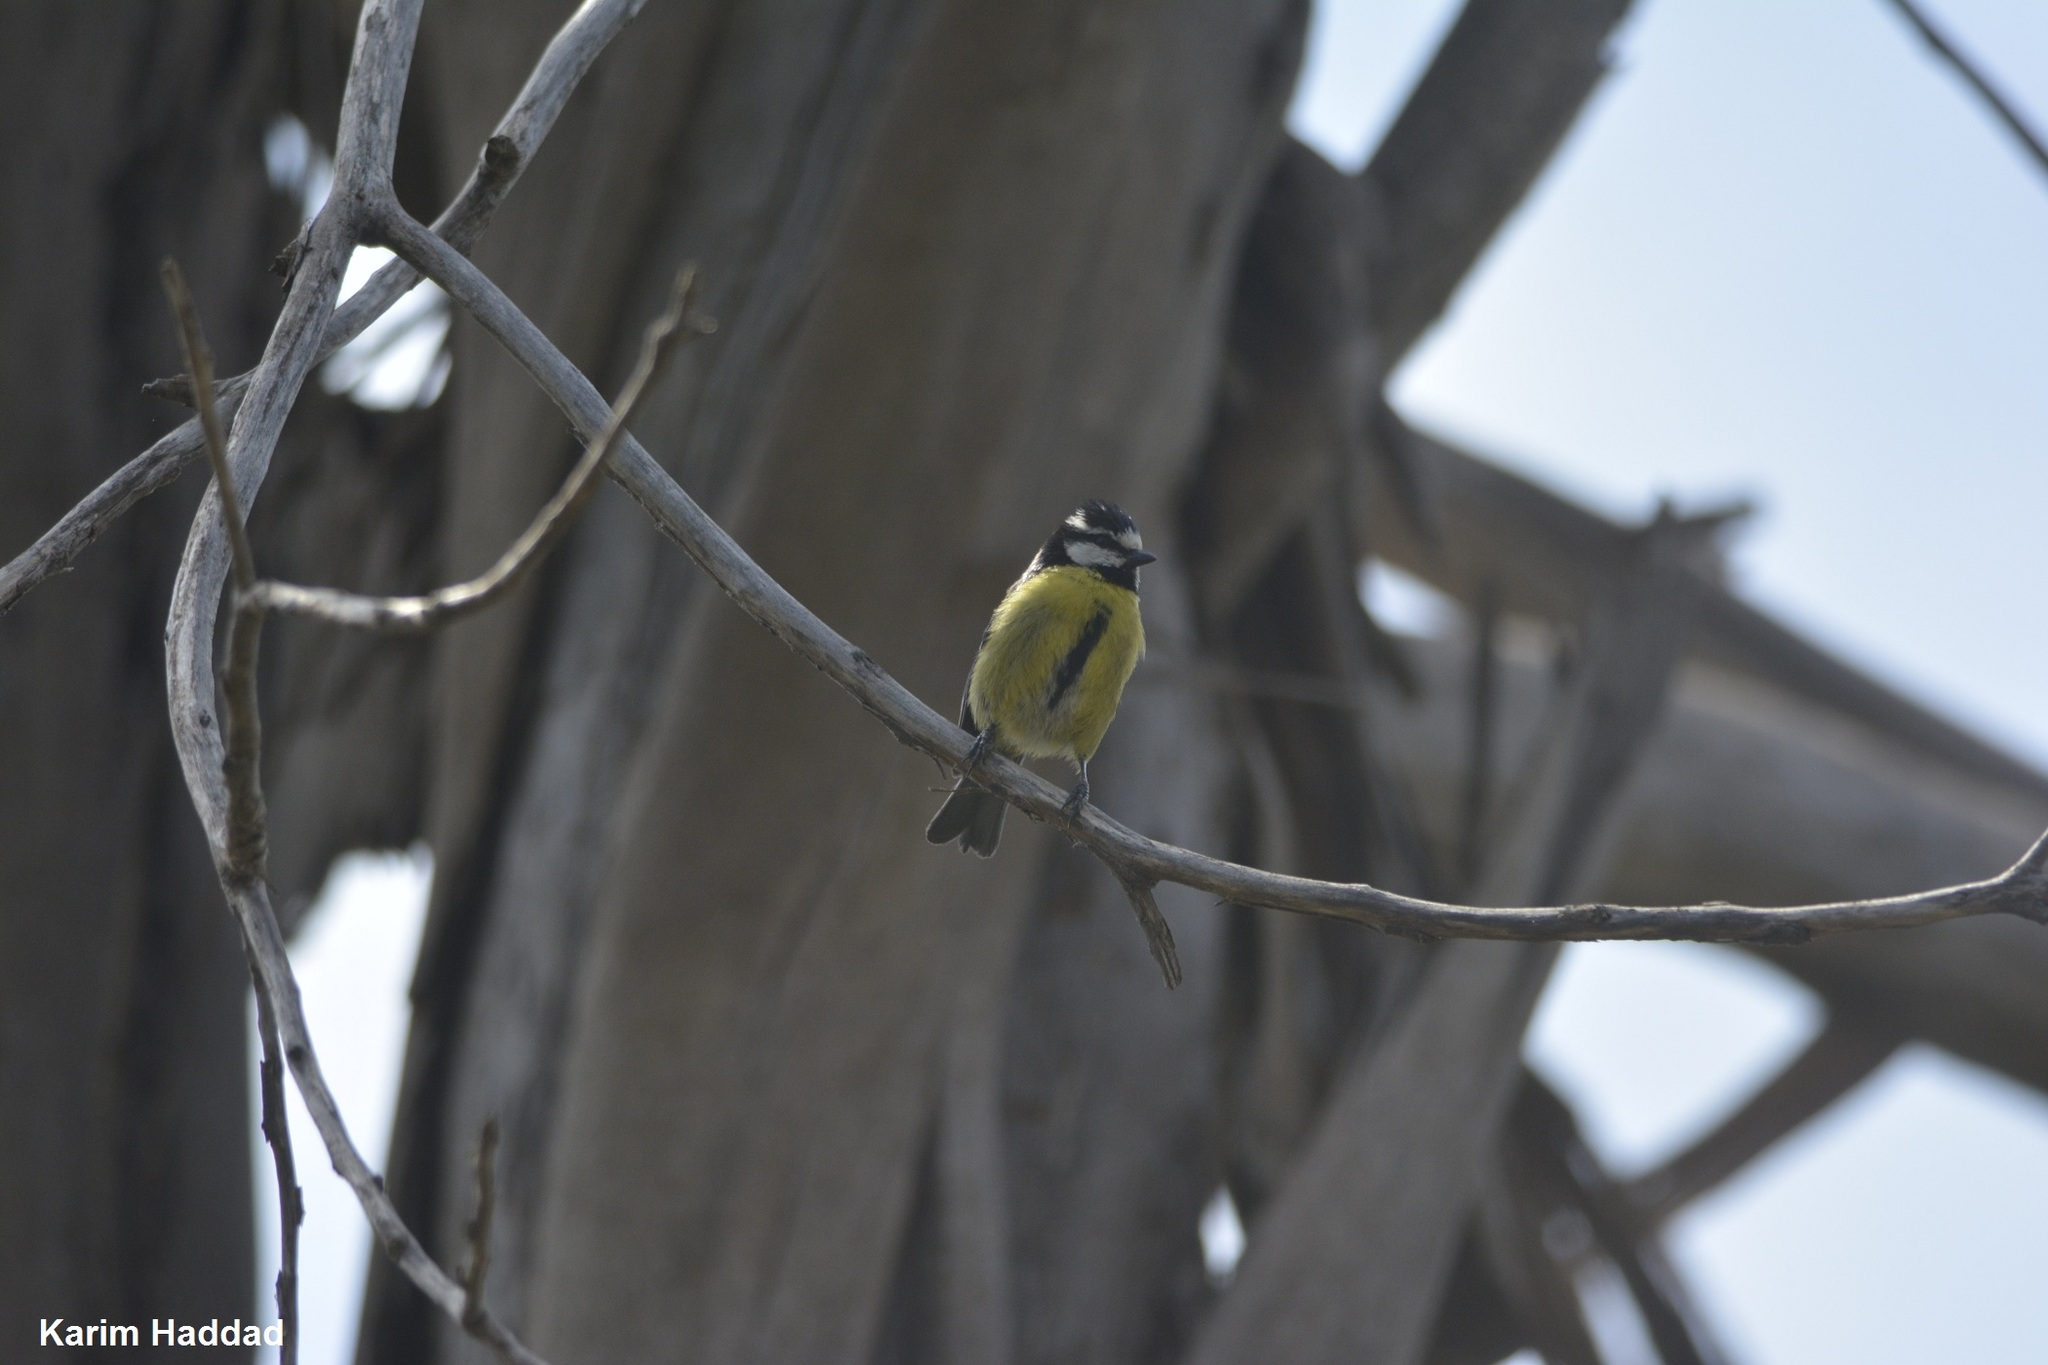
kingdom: Animalia
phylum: Chordata
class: Aves
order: Passeriformes
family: Paridae
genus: Cyanistes
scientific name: Cyanistes teneriffae
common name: African blue tit
